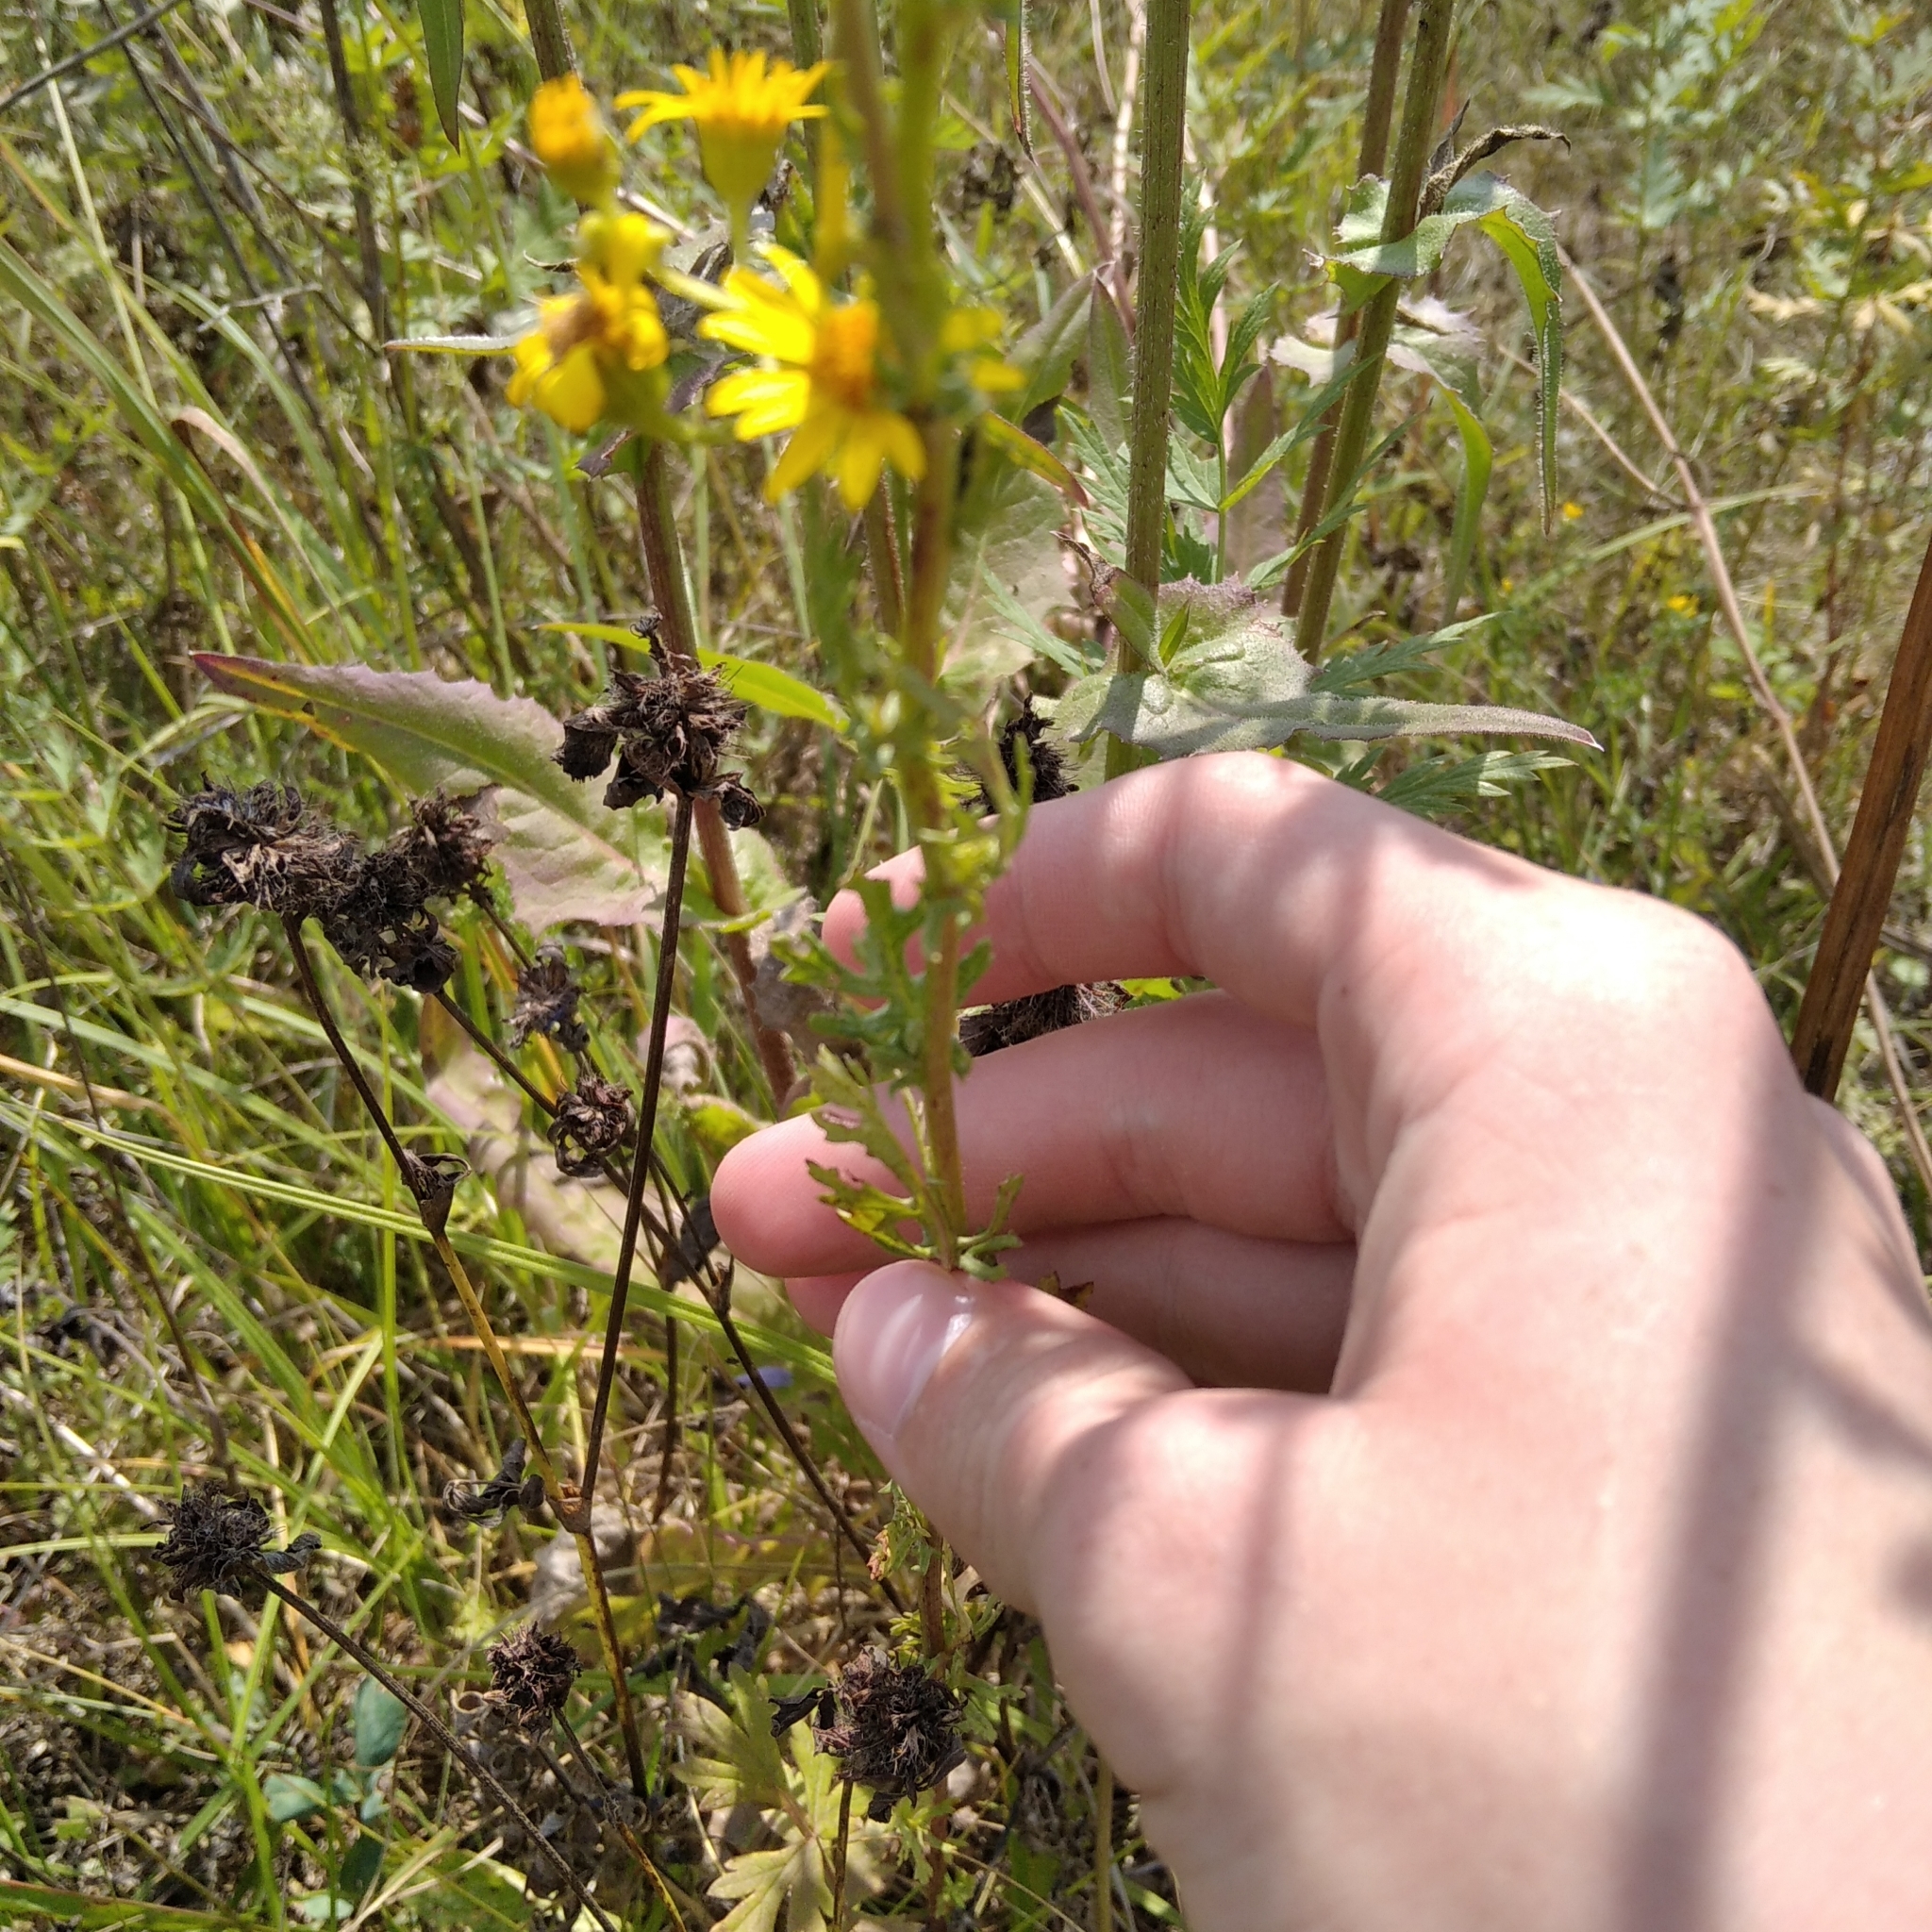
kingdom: Plantae
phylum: Tracheophyta
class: Magnoliopsida
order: Asterales
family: Asteraceae
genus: Jacobaea
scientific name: Jacobaea vulgaris
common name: Stinking willie
